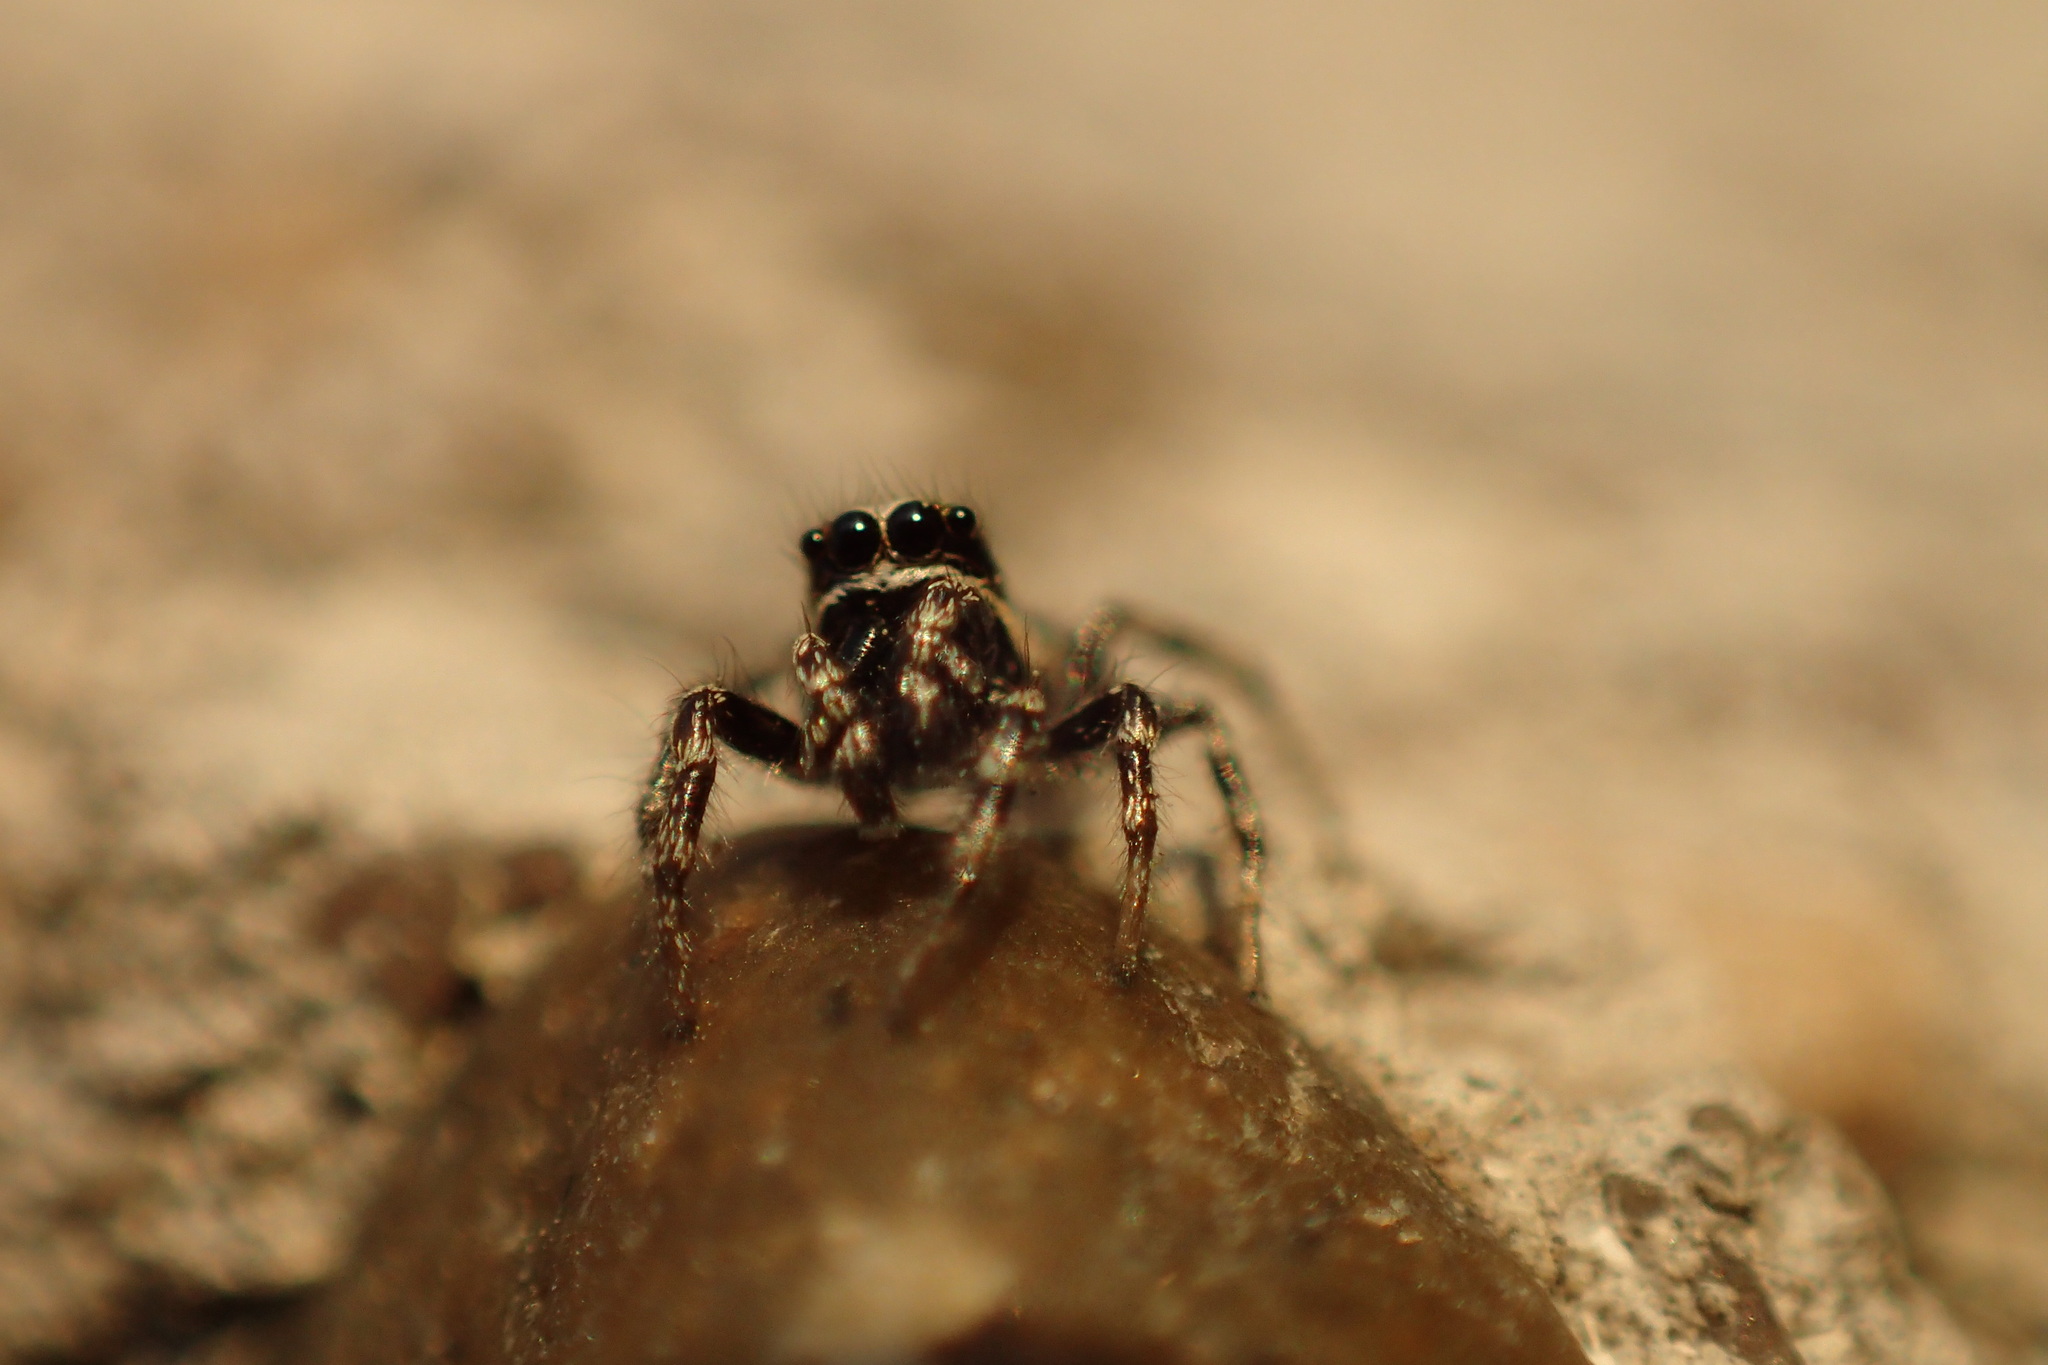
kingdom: Animalia
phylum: Arthropoda
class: Arachnida
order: Araneae
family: Salticidae
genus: Salticus
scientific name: Salticus scenicus
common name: Zebra jumper
